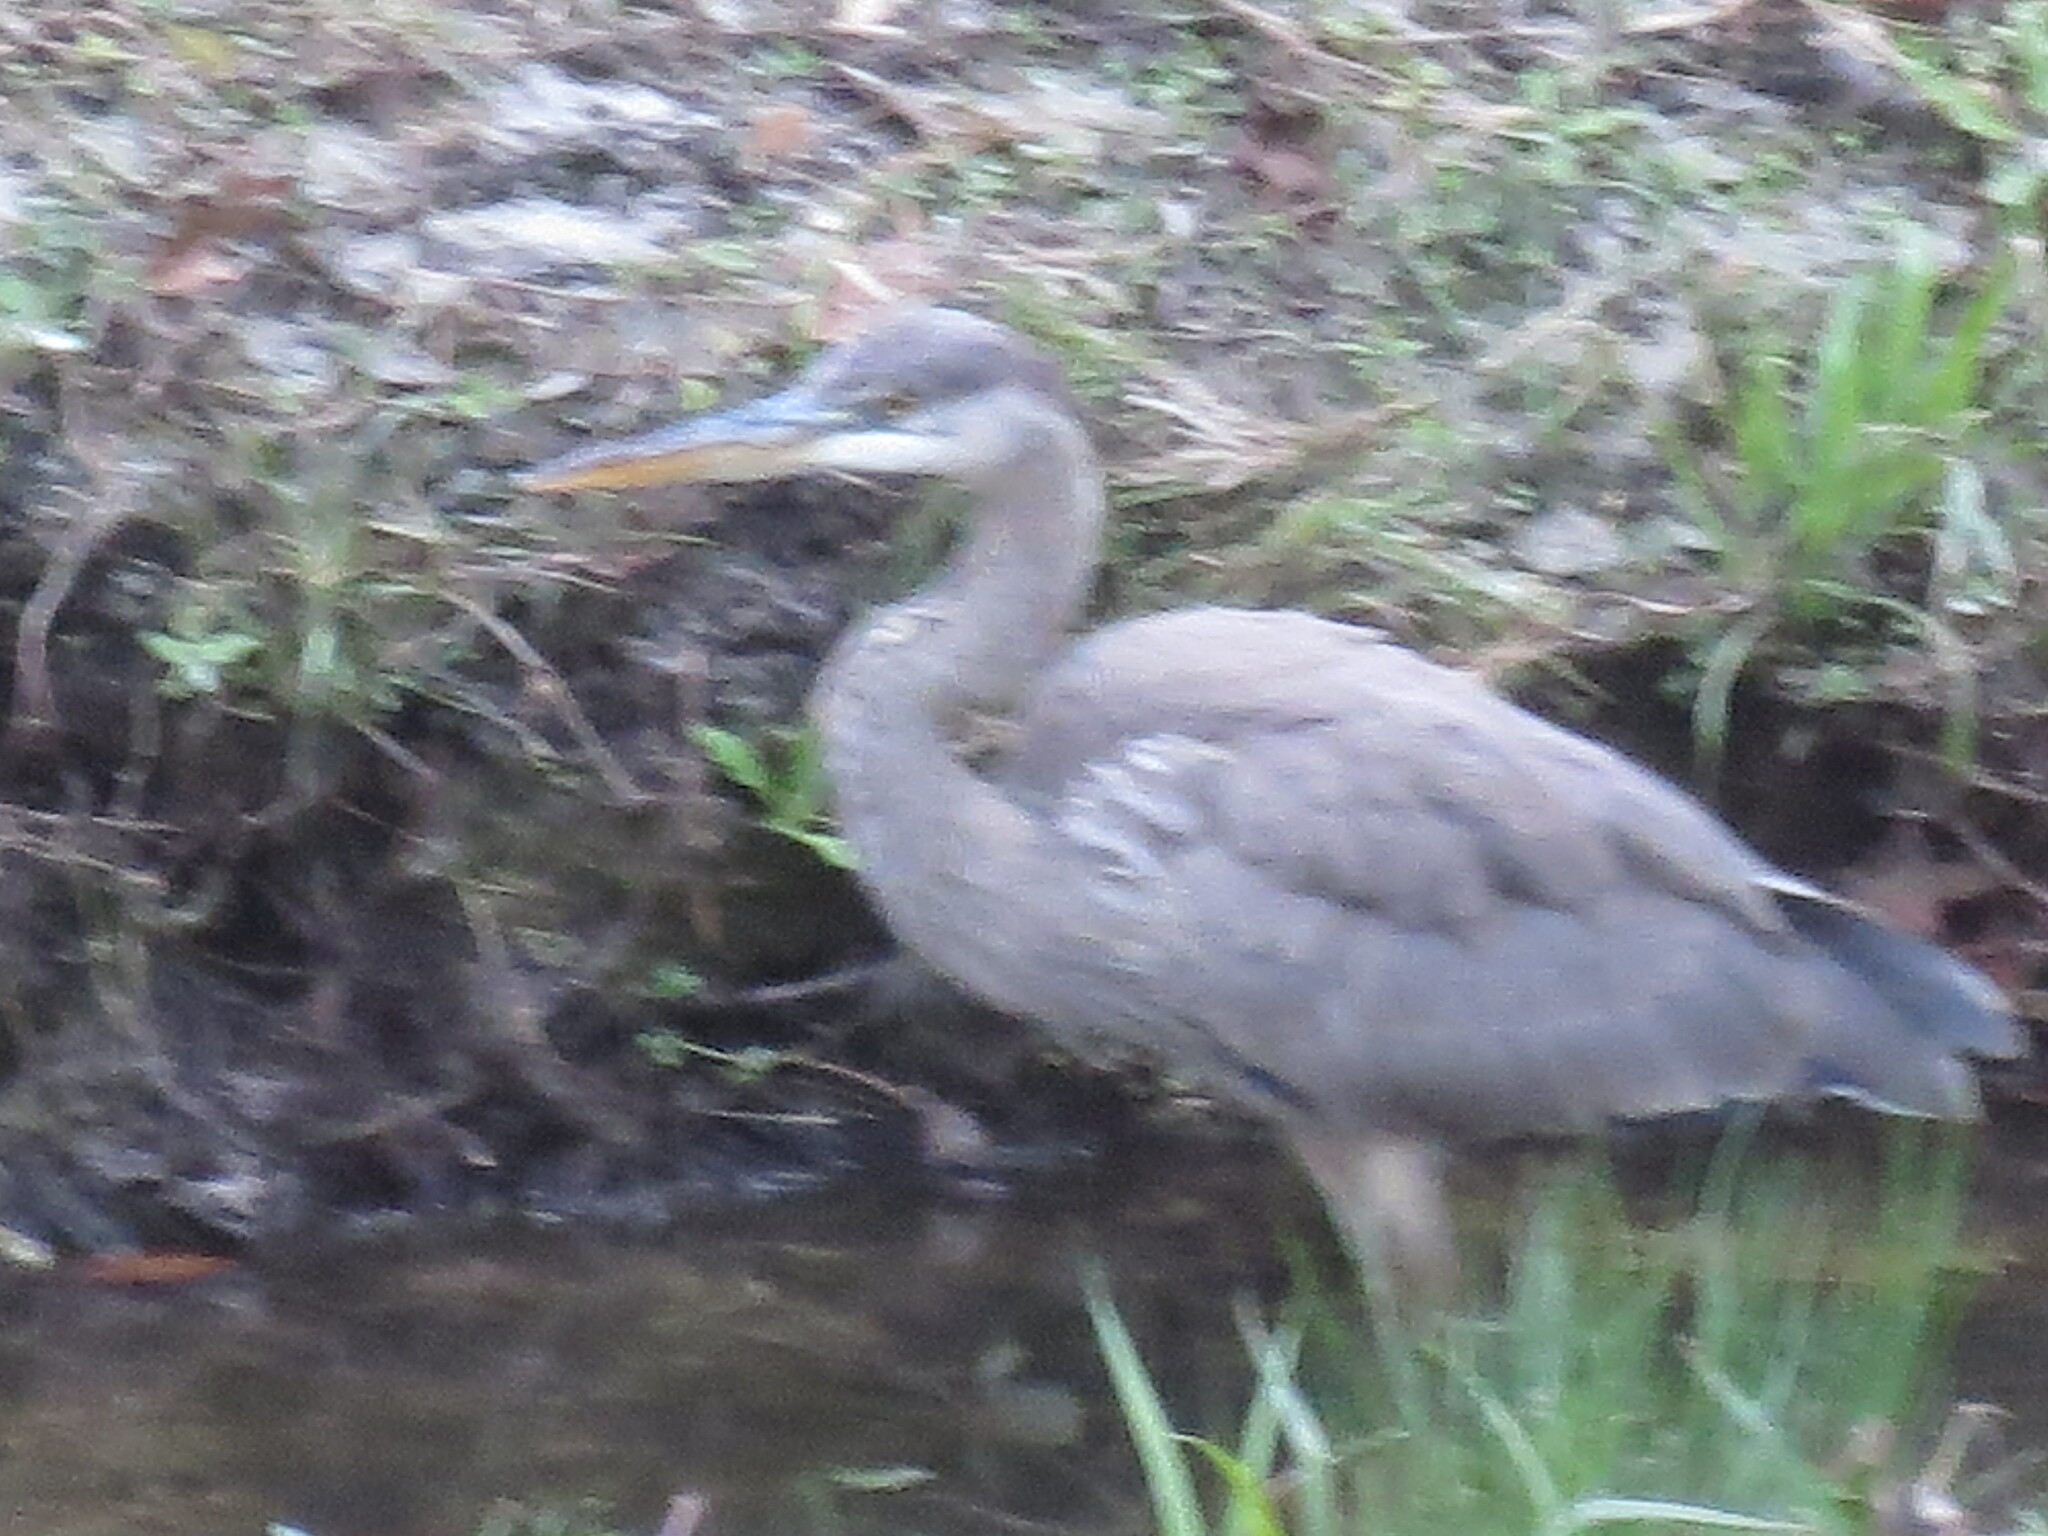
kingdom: Animalia
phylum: Chordata
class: Aves
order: Pelecaniformes
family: Ardeidae
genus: Ardea
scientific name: Ardea herodias
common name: Great blue heron
